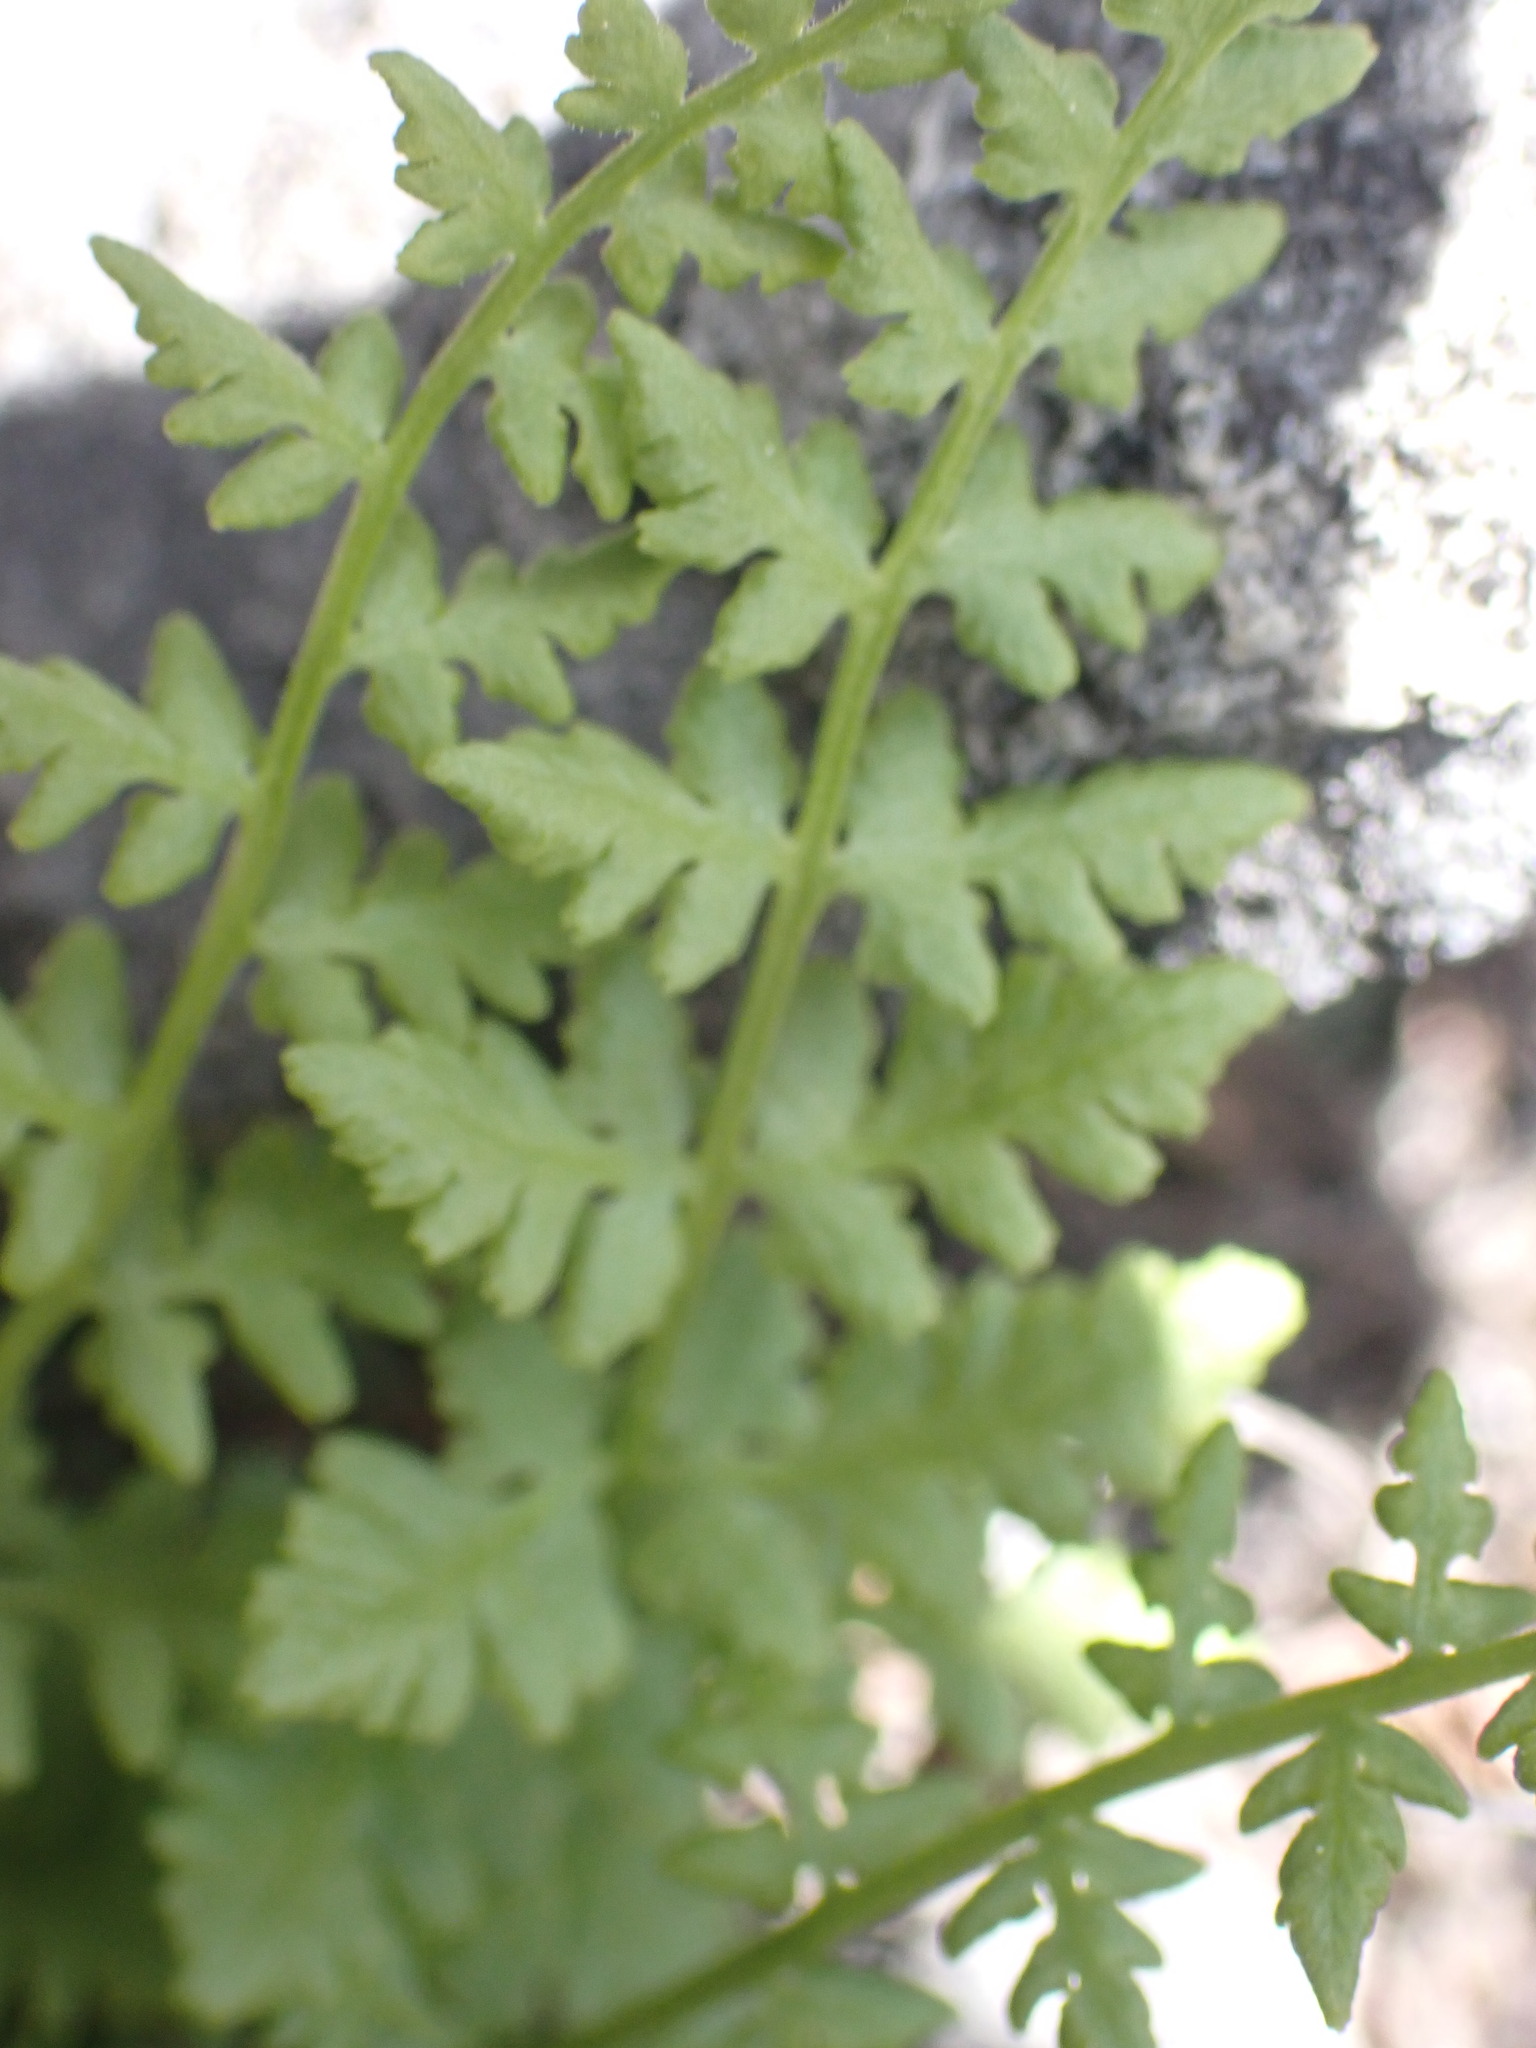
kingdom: Plantae
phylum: Tracheophyta
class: Polypodiopsida
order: Polypodiales
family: Woodsiaceae
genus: Physematium
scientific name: Physematium oreganum
